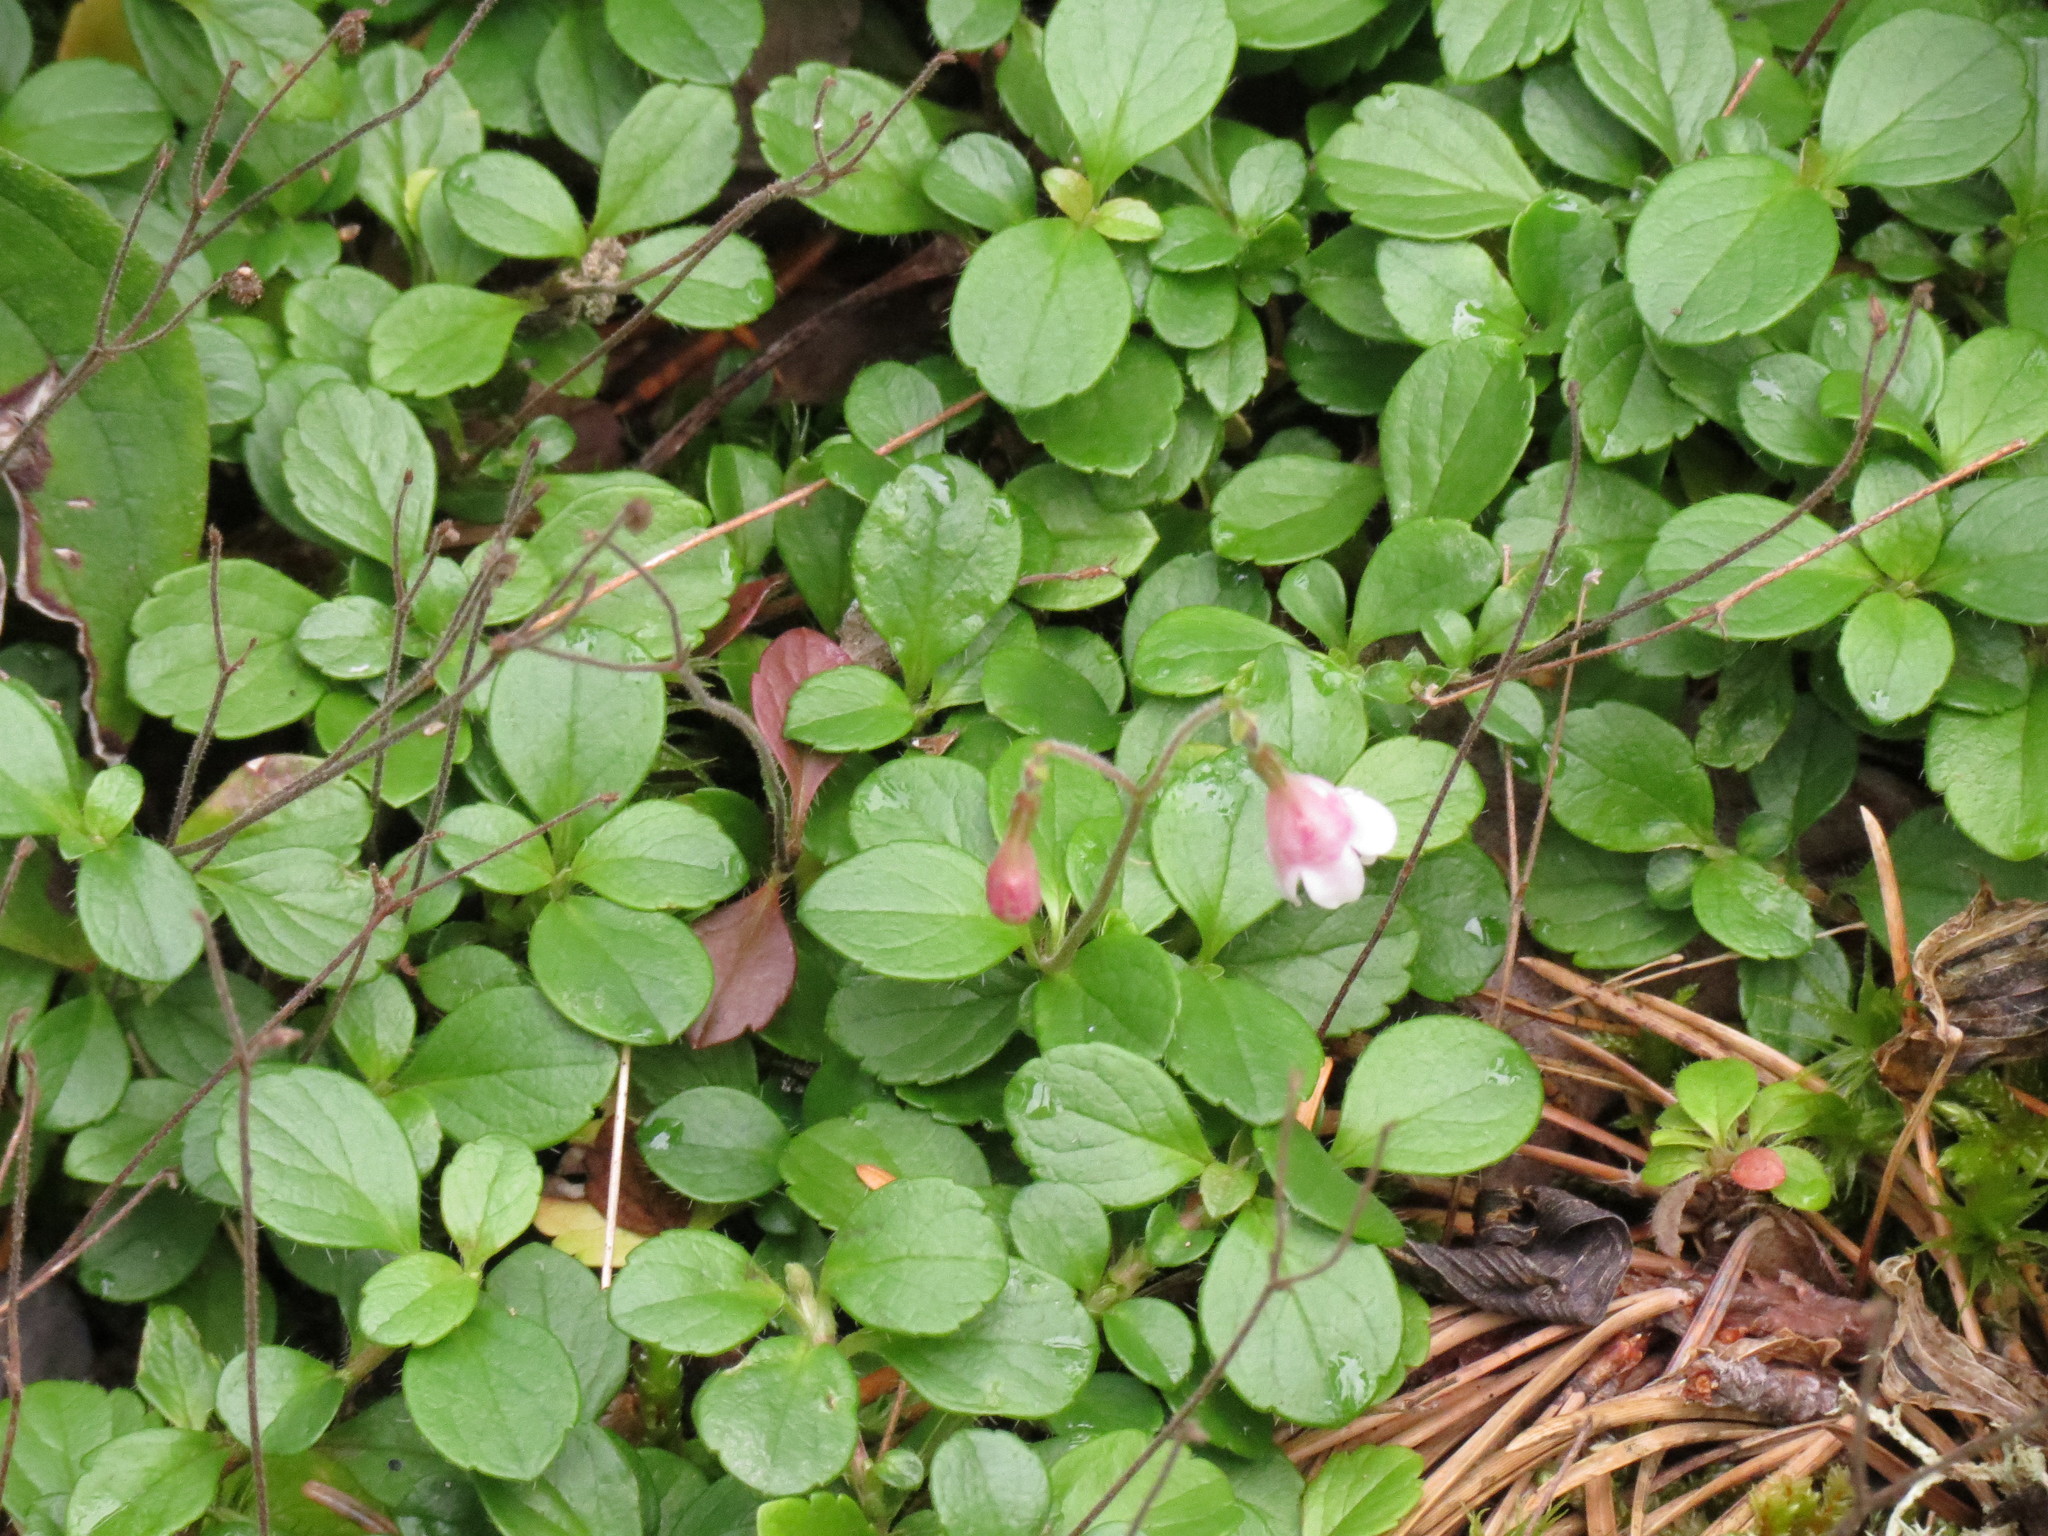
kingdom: Plantae
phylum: Tracheophyta
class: Magnoliopsida
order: Dipsacales
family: Caprifoliaceae
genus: Linnaea
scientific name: Linnaea borealis
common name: Twinflower
